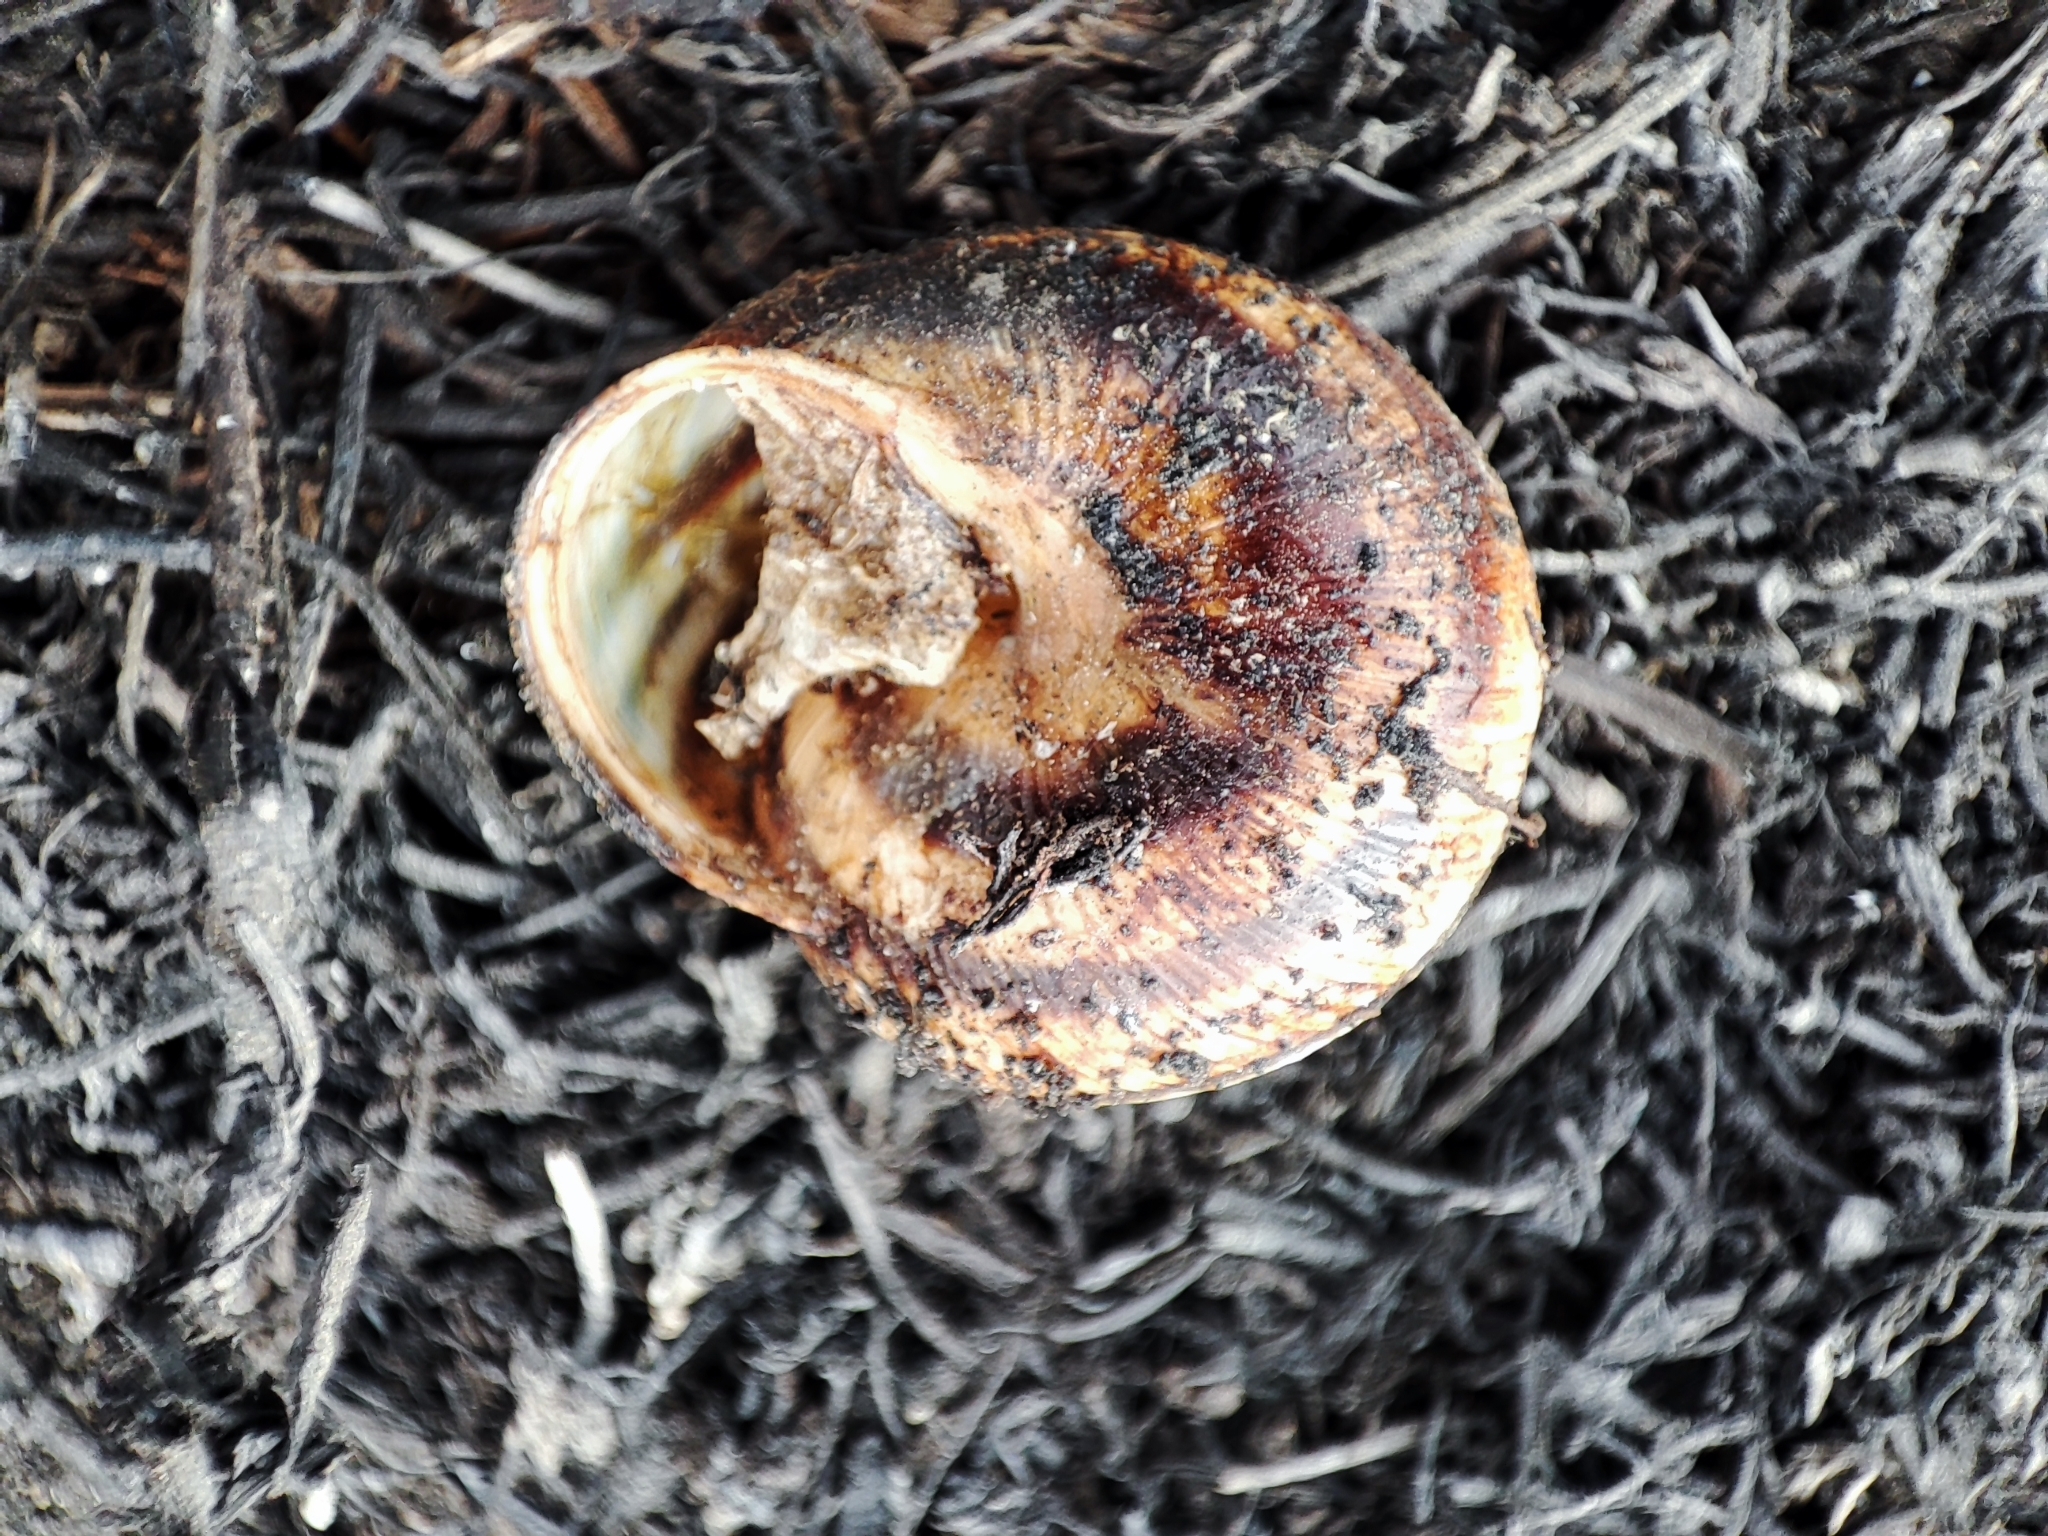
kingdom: Animalia
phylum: Mollusca
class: Gastropoda
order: Stylommatophora
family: Helicidae
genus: Caucasotachea
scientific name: Caucasotachea vindobonensis
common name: European helicid land snail
